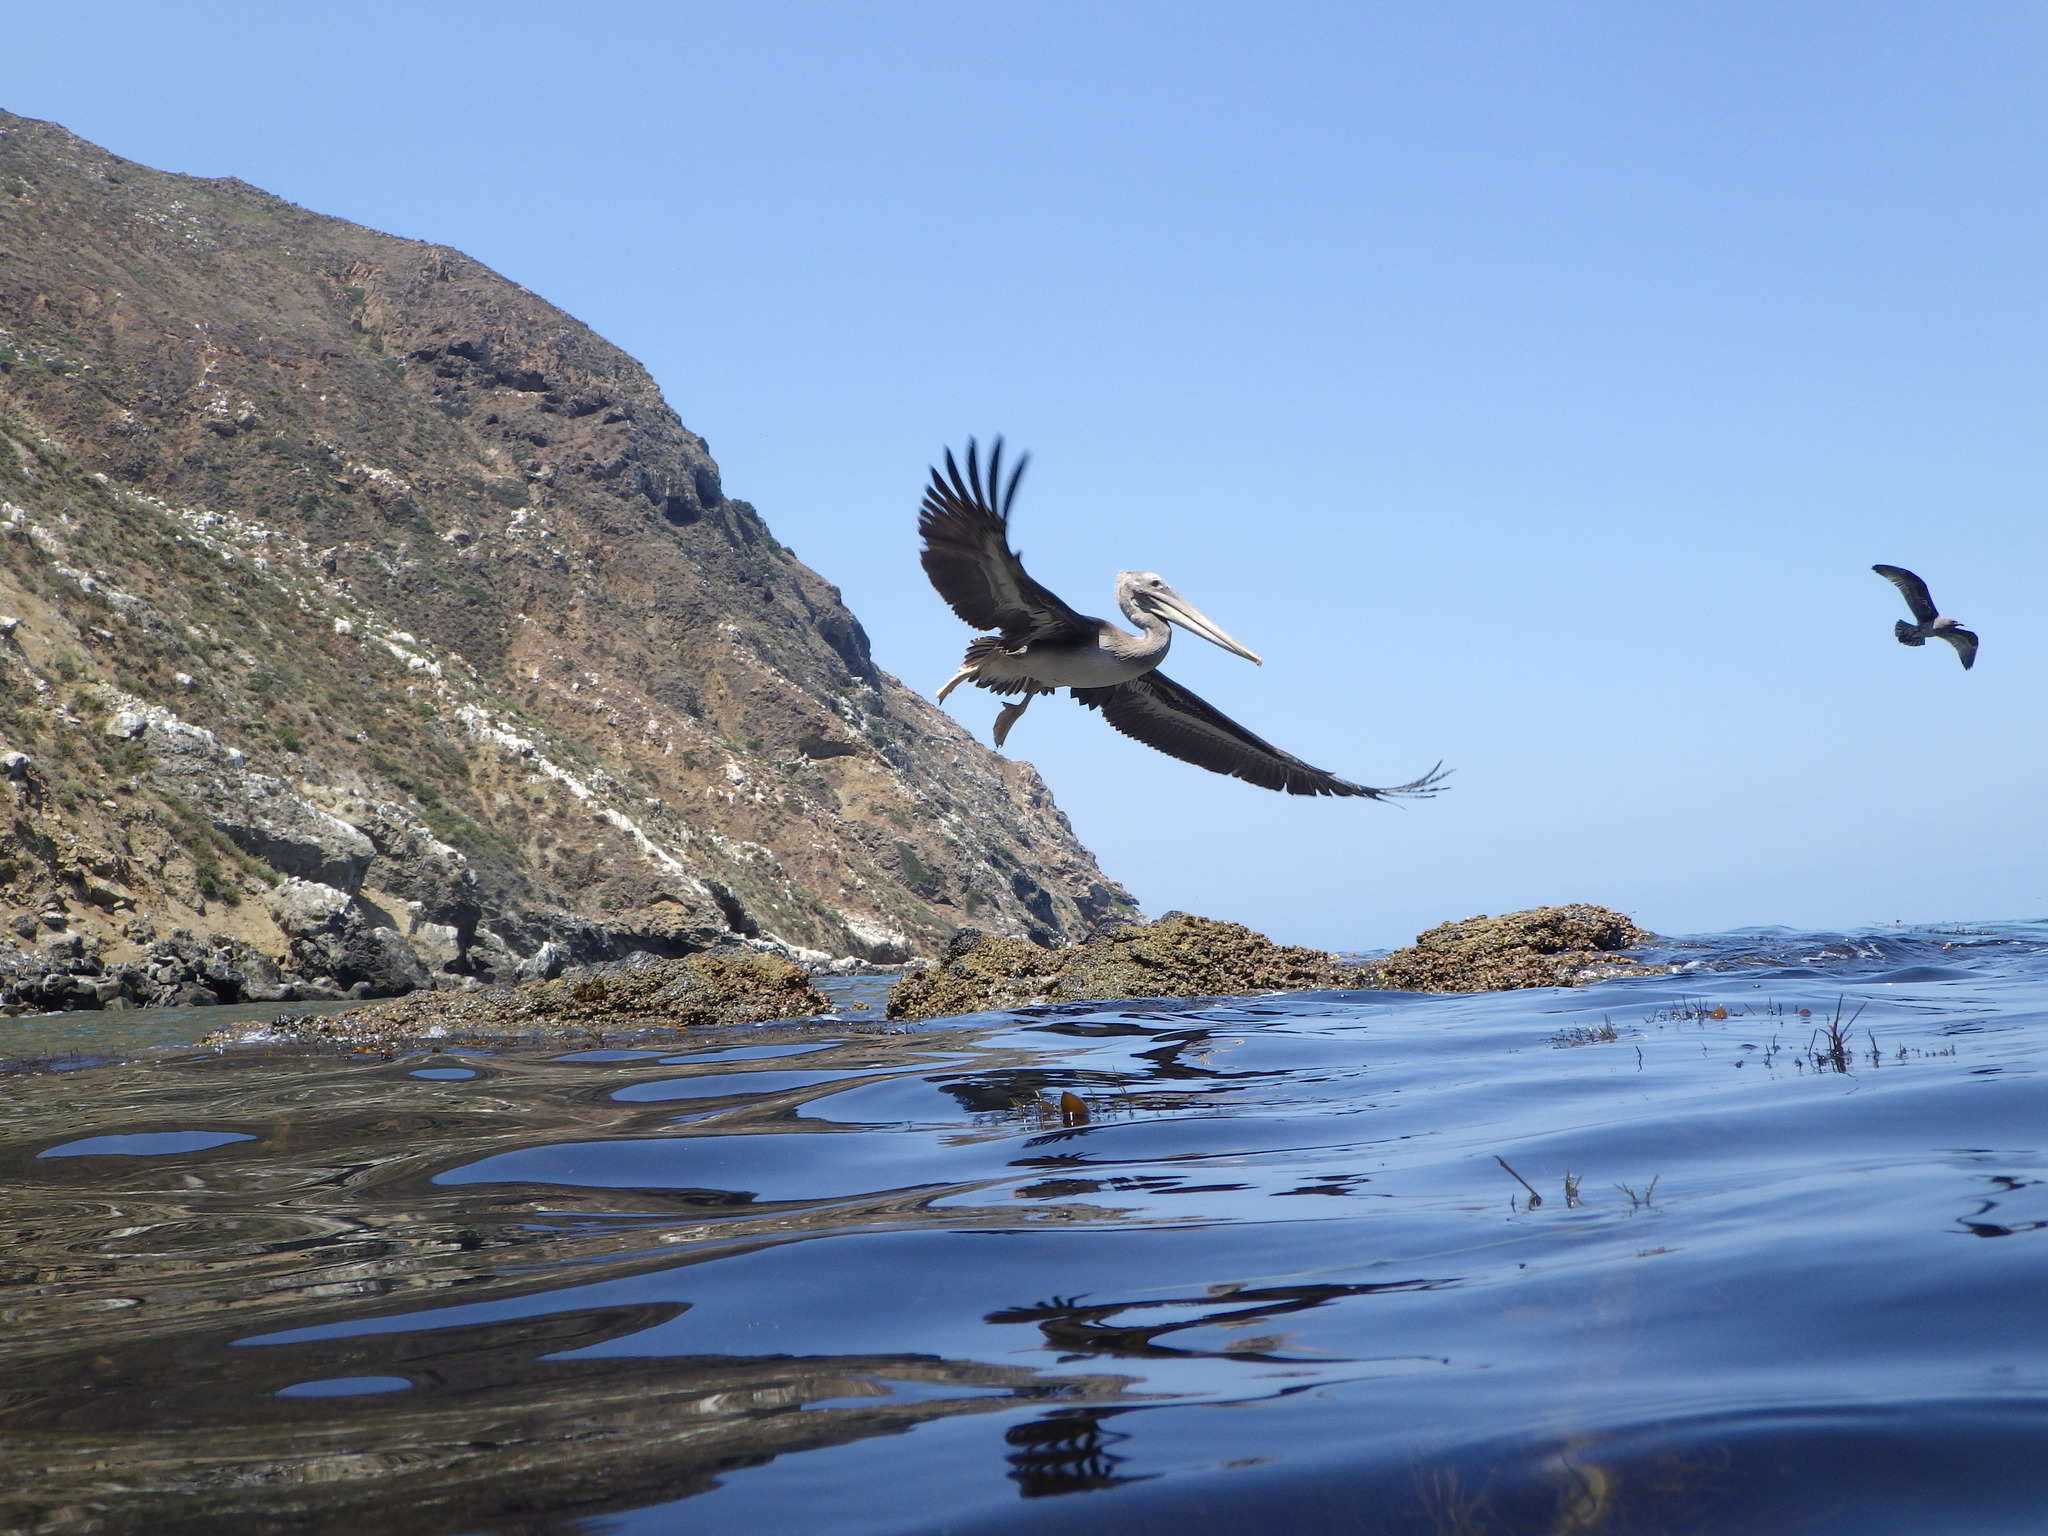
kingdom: Animalia
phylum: Chordata
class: Aves
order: Pelecaniformes
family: Pelecanidae
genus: Pelecanus
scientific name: Pelecanus occidentalis
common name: Brown pelican
